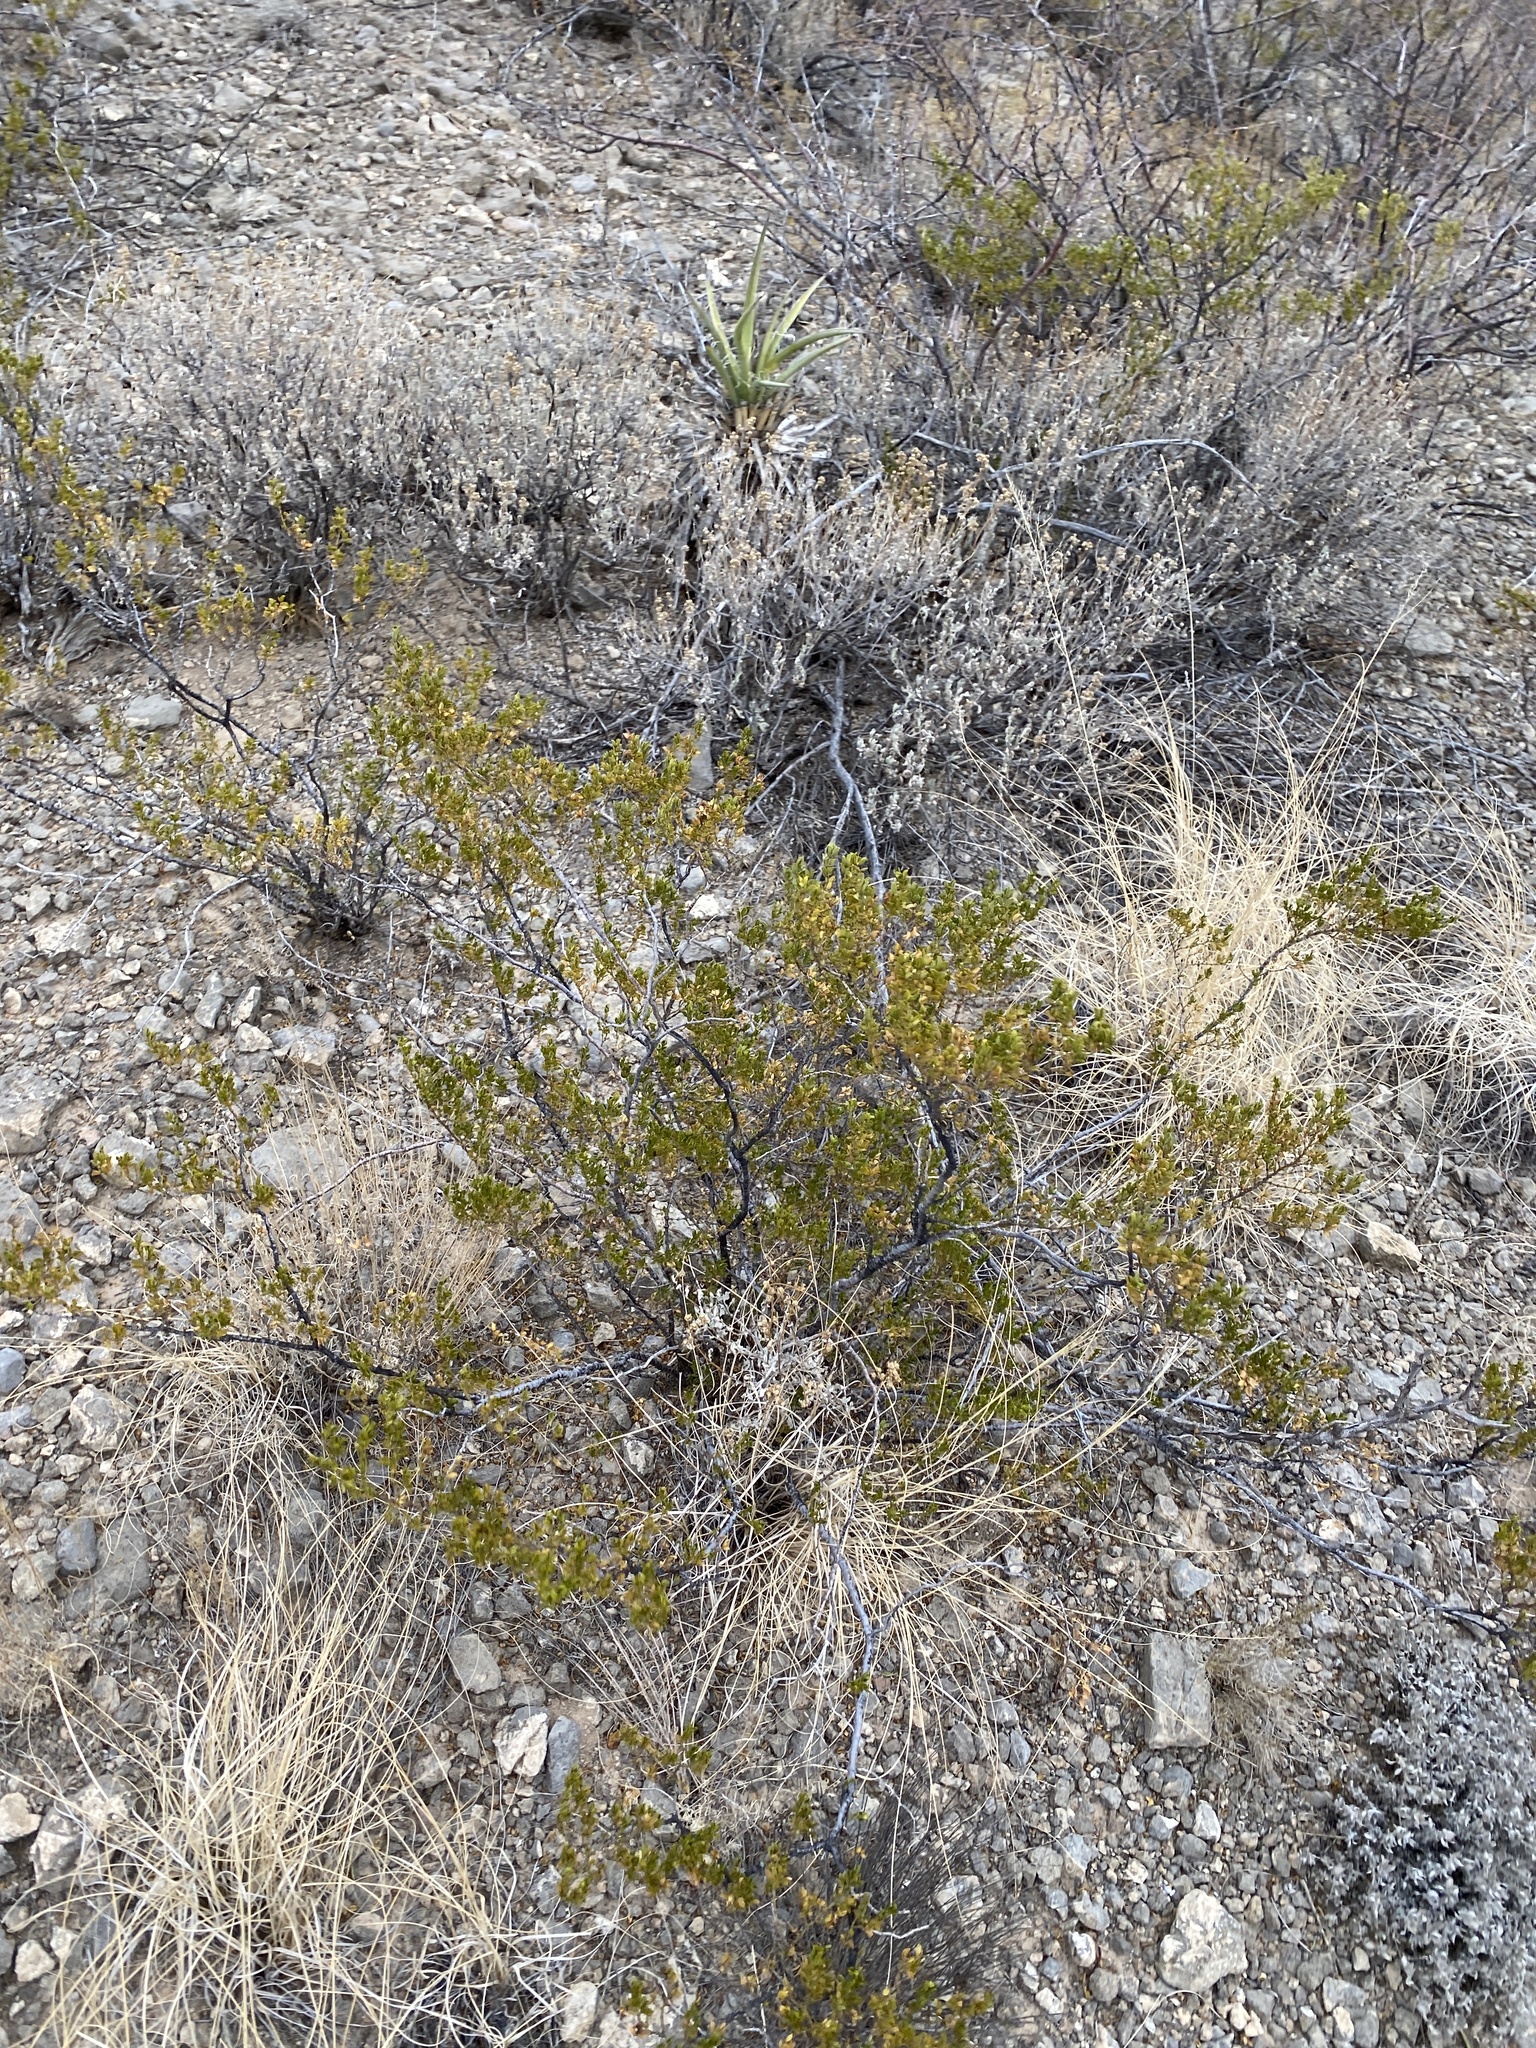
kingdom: Plantae
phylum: Tracheophyta
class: Magnoliopsida
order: Zygophyllales
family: Zygophyllaceae
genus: Larrea
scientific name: Larrea tridentata
